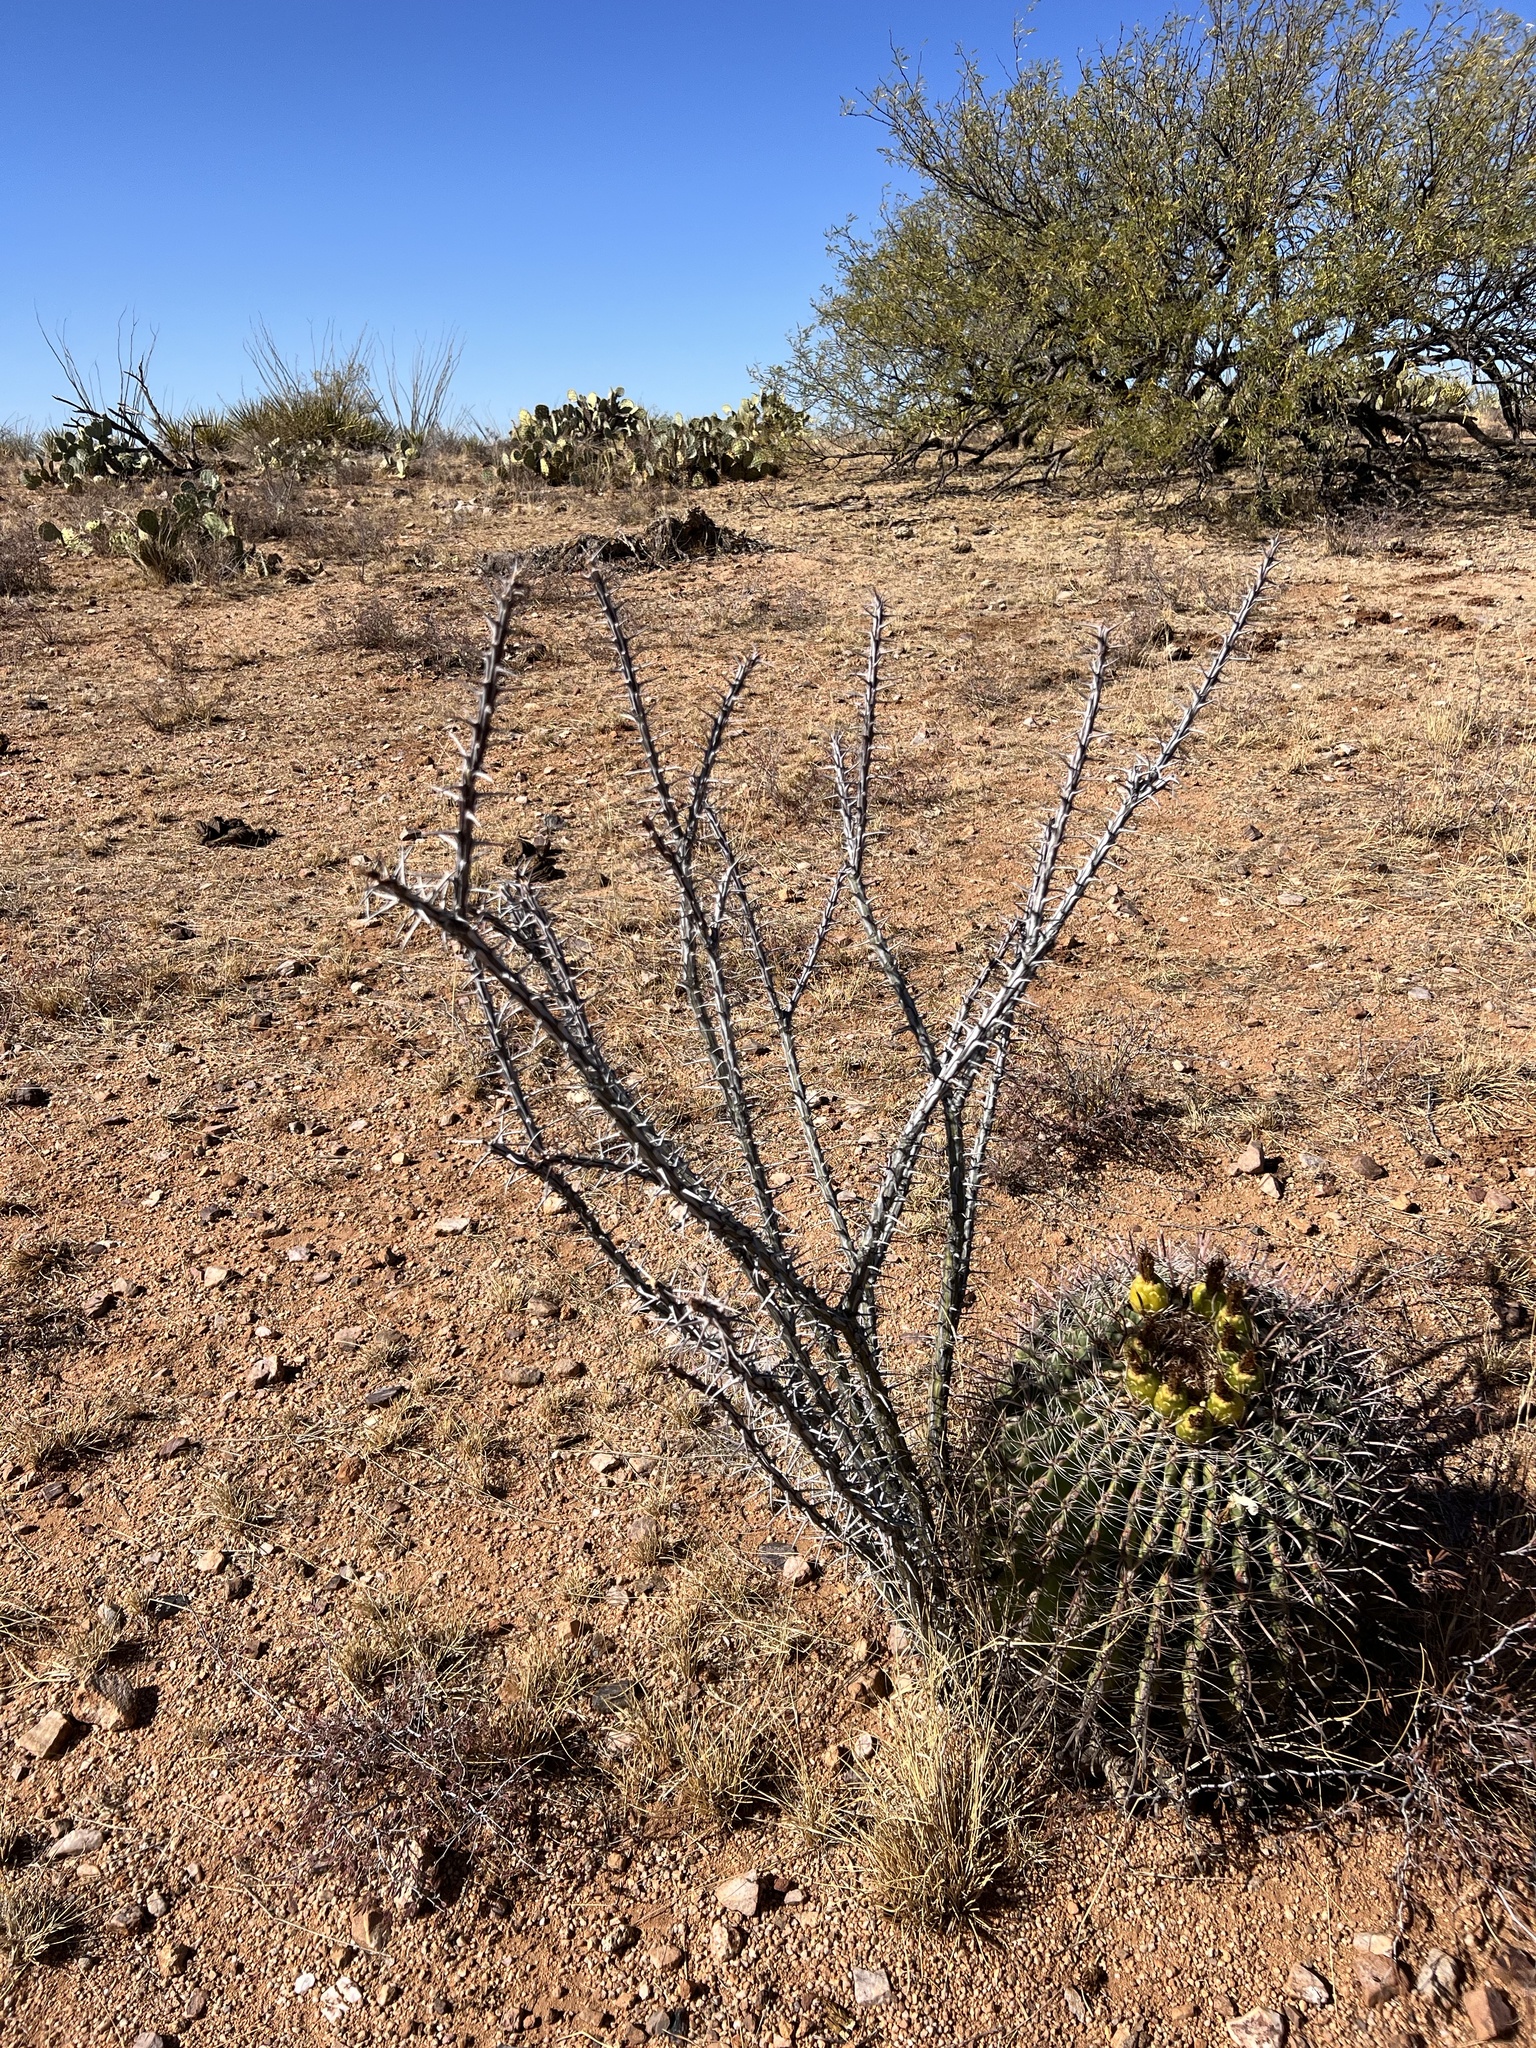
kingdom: Plantae
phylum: Tracheophyta
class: Magnoliopsida
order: Ericales
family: Fouquieriaceae
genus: Fouquieria
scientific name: Fouquieria splendens
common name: Vine-cactus
